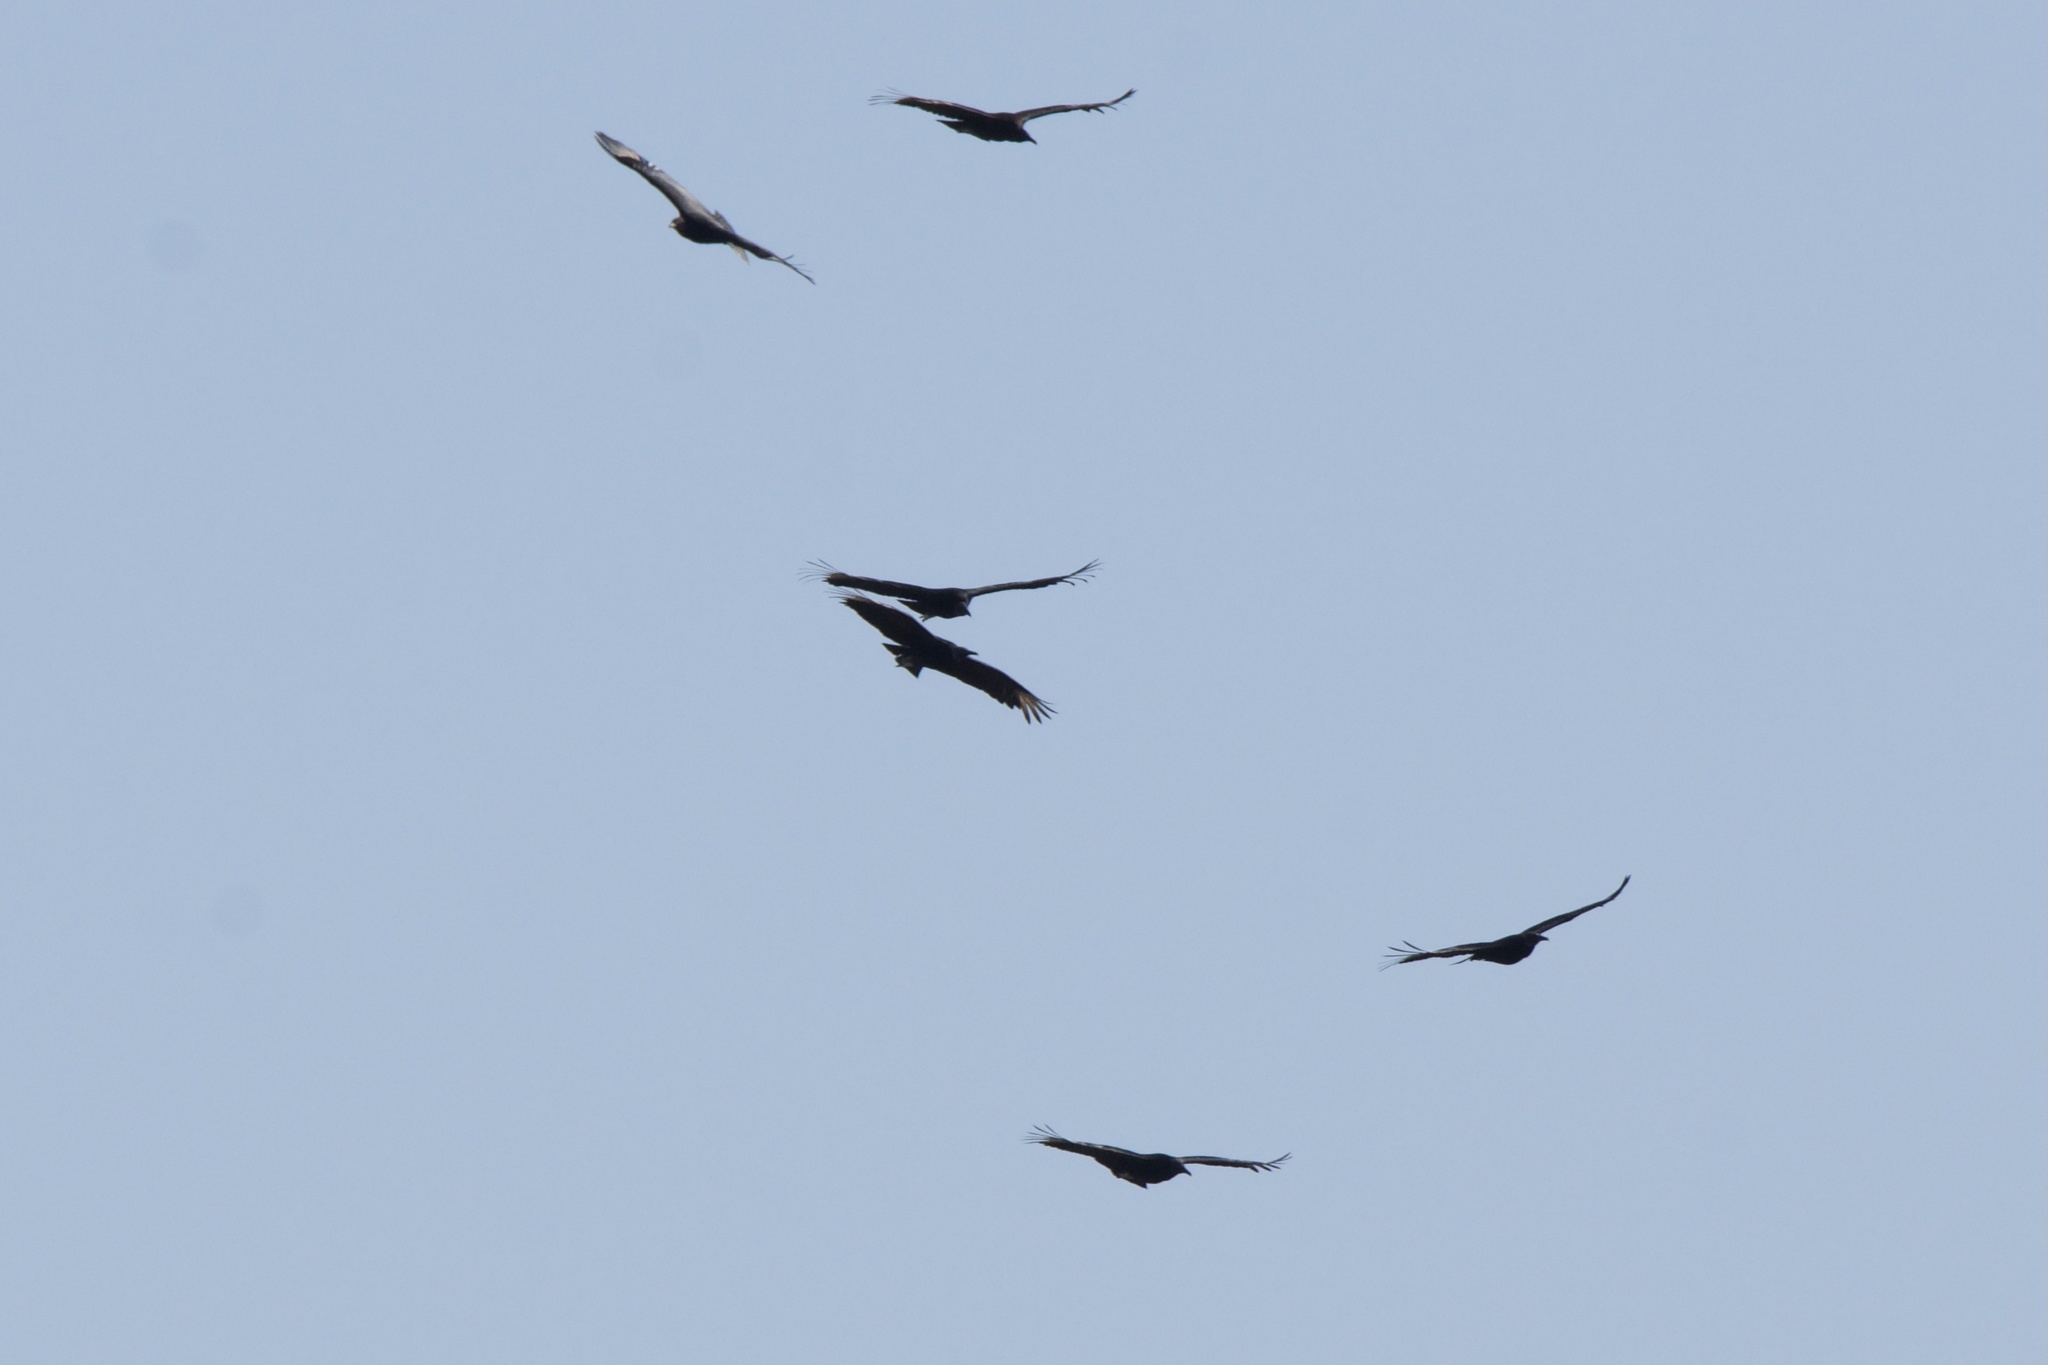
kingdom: Animalia
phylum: Chordata
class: Aves
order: Accipitriformes
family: Cathartidae
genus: Coragyps
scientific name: Coragyps atratus
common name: Black vulture
